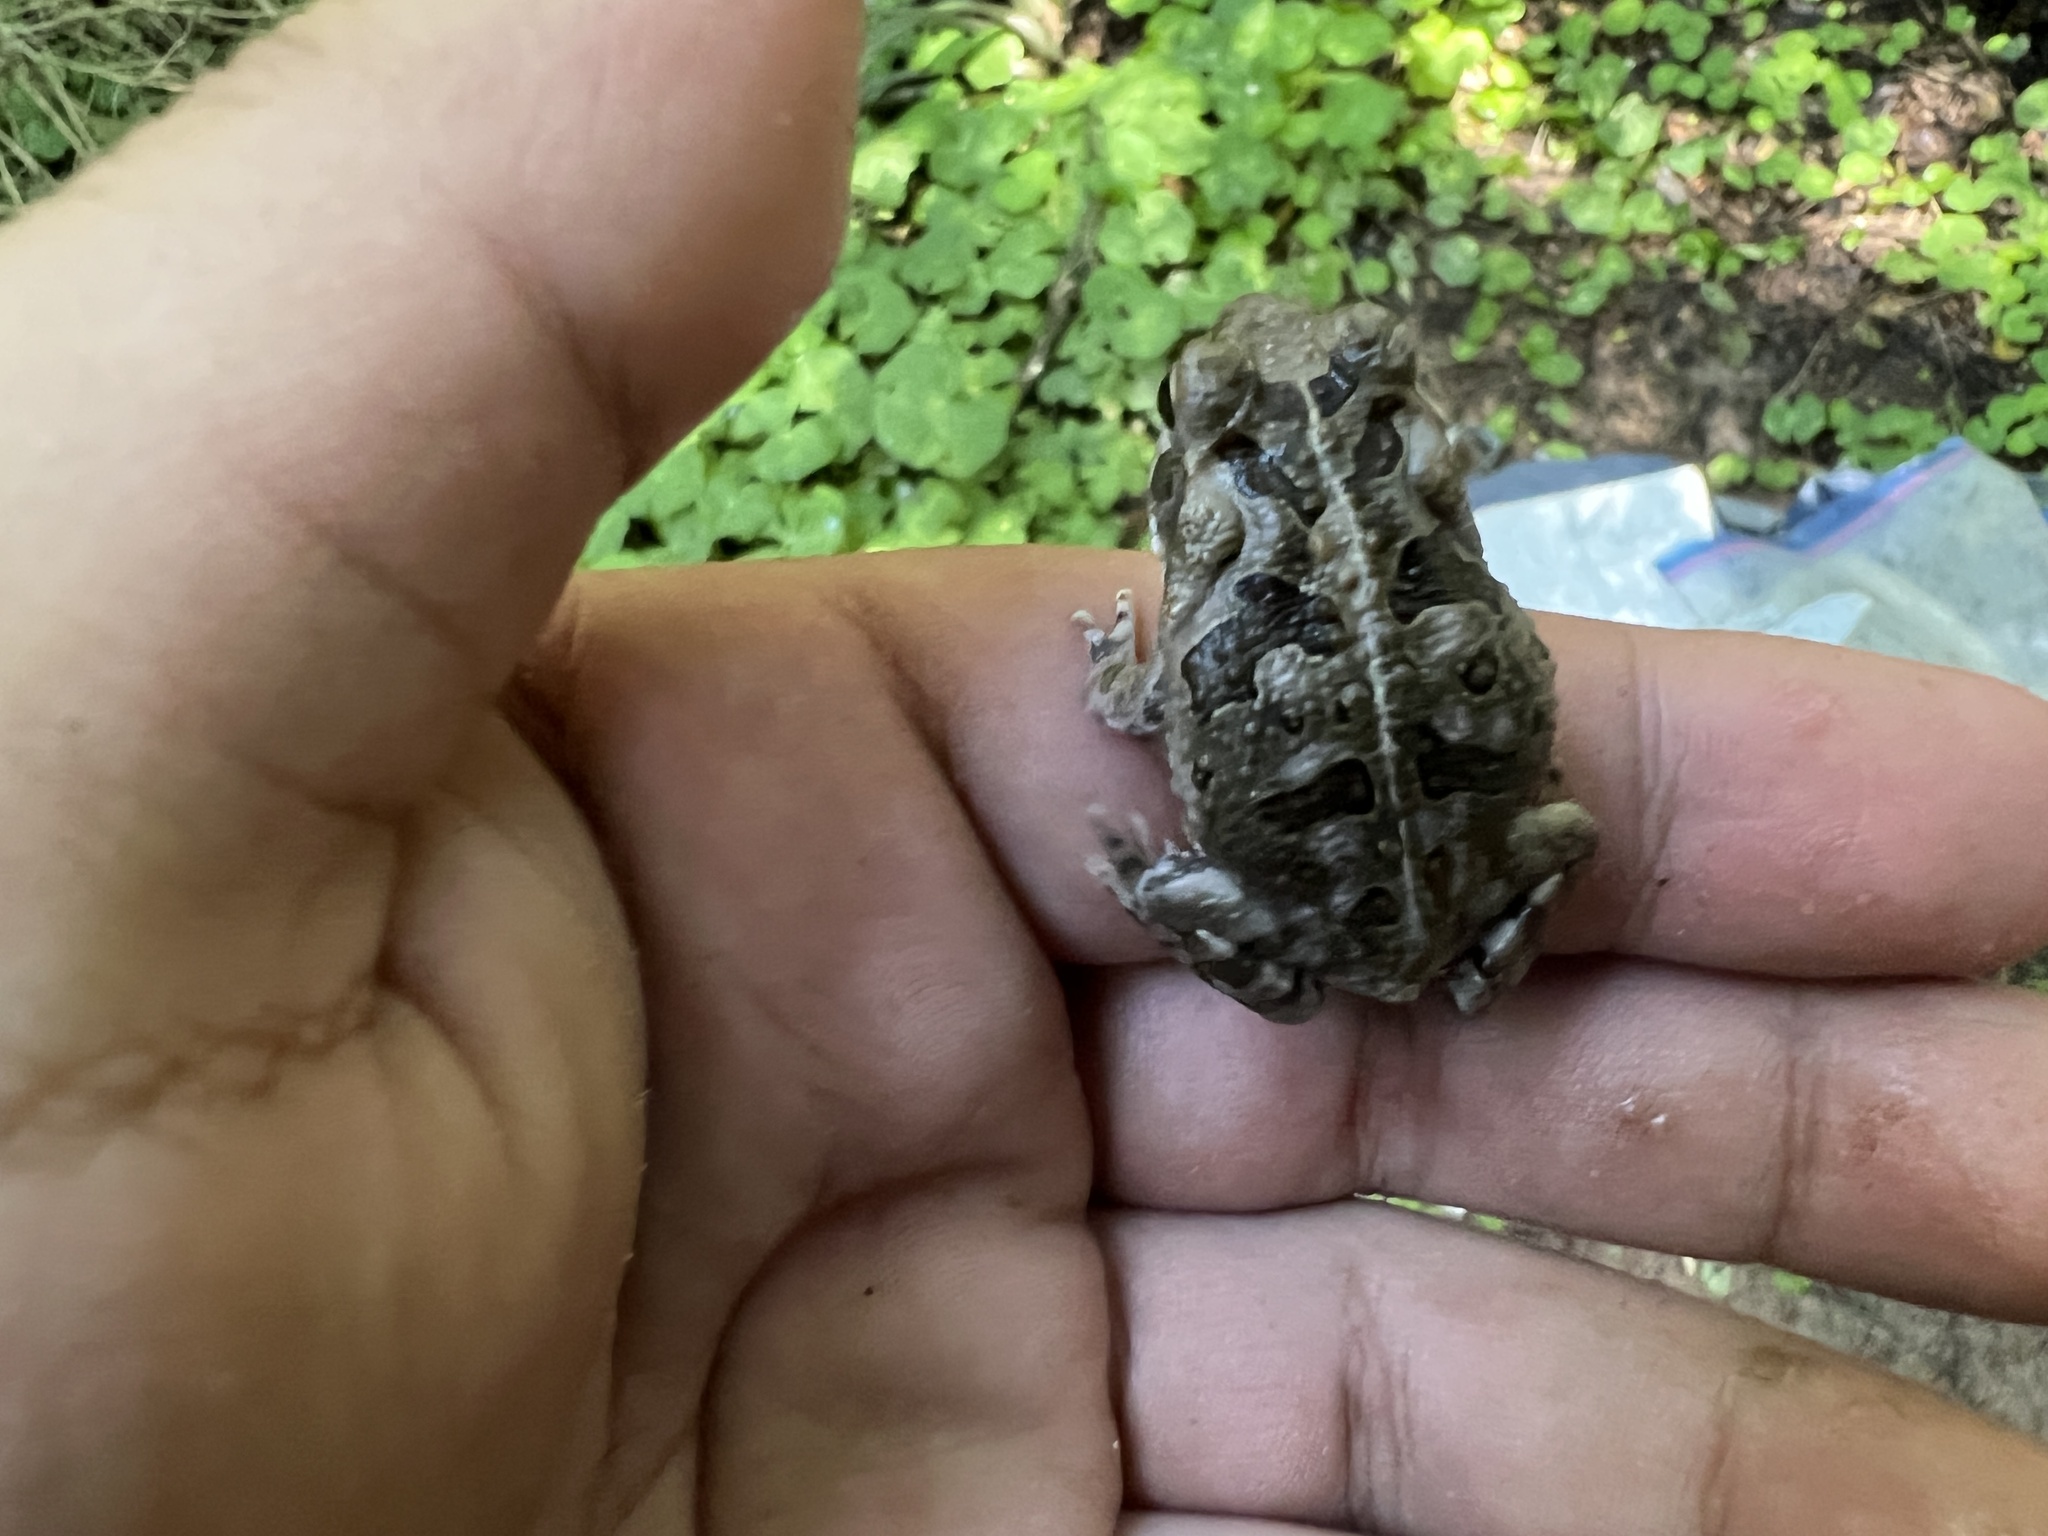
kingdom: Animalia
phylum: Chordata
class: Amphibia
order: Anura
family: Bufonidae
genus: Rhinella
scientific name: Rhinella diptycha
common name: Cope's toad
